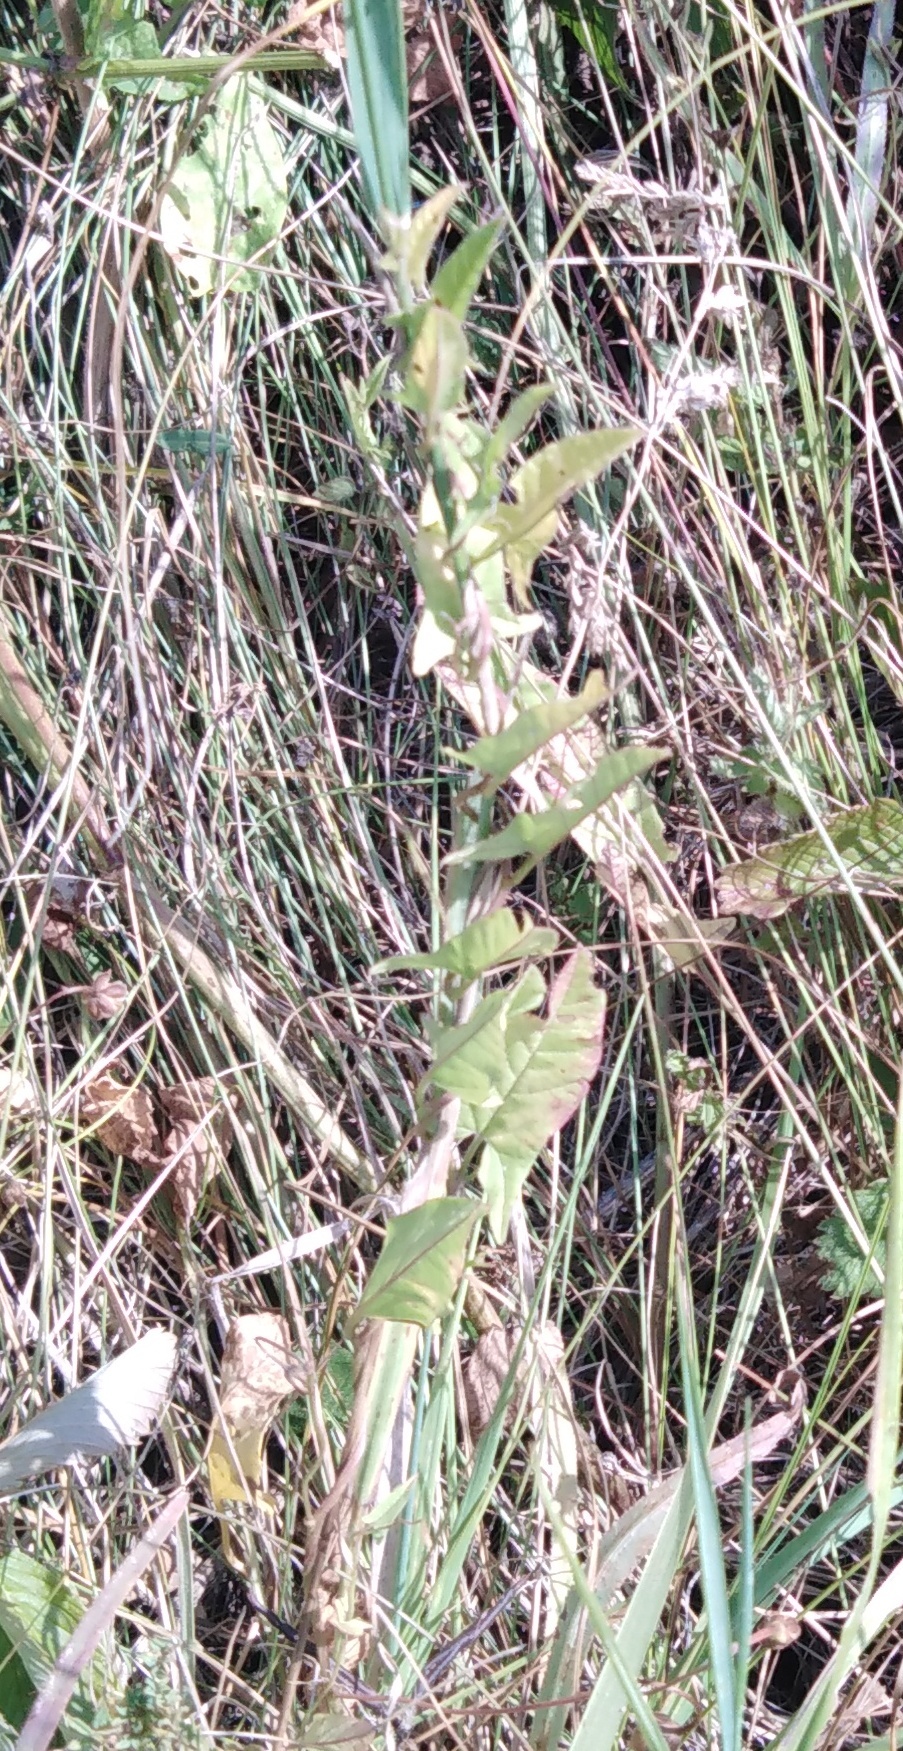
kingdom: Plantae
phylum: Tracheophyta
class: Magnoliopsida
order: Solanales
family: Convolvulaceae
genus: Convolvulus
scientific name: Convolvulus arvensis
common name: Field bindweed
